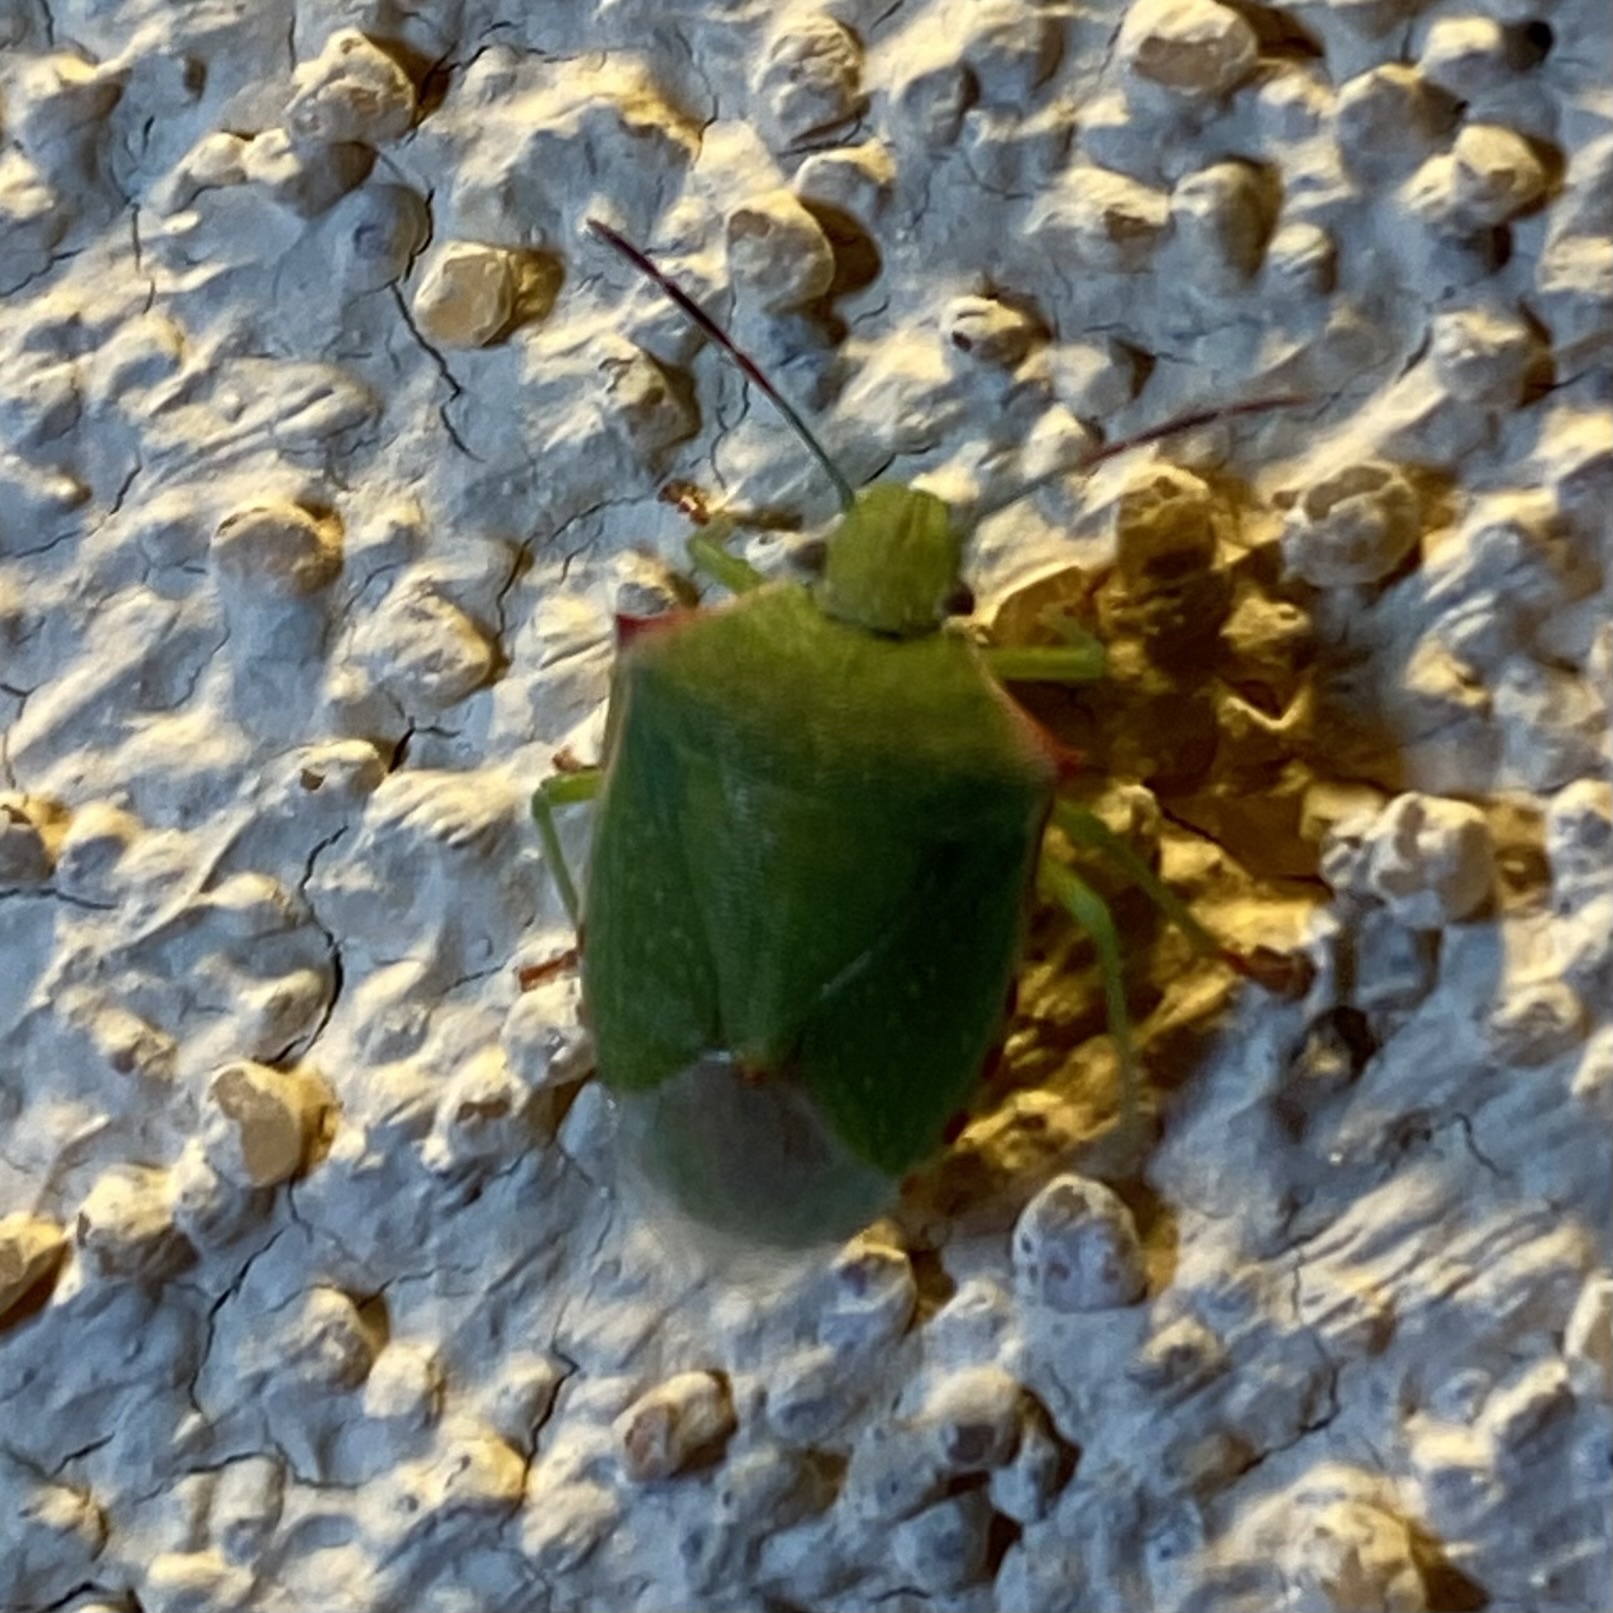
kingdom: Animalia
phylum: Arthropoda
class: Insecta
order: Hemiptera
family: Pentatomidae
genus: Thyanta
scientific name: Thyanta accerra
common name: Stink bug
